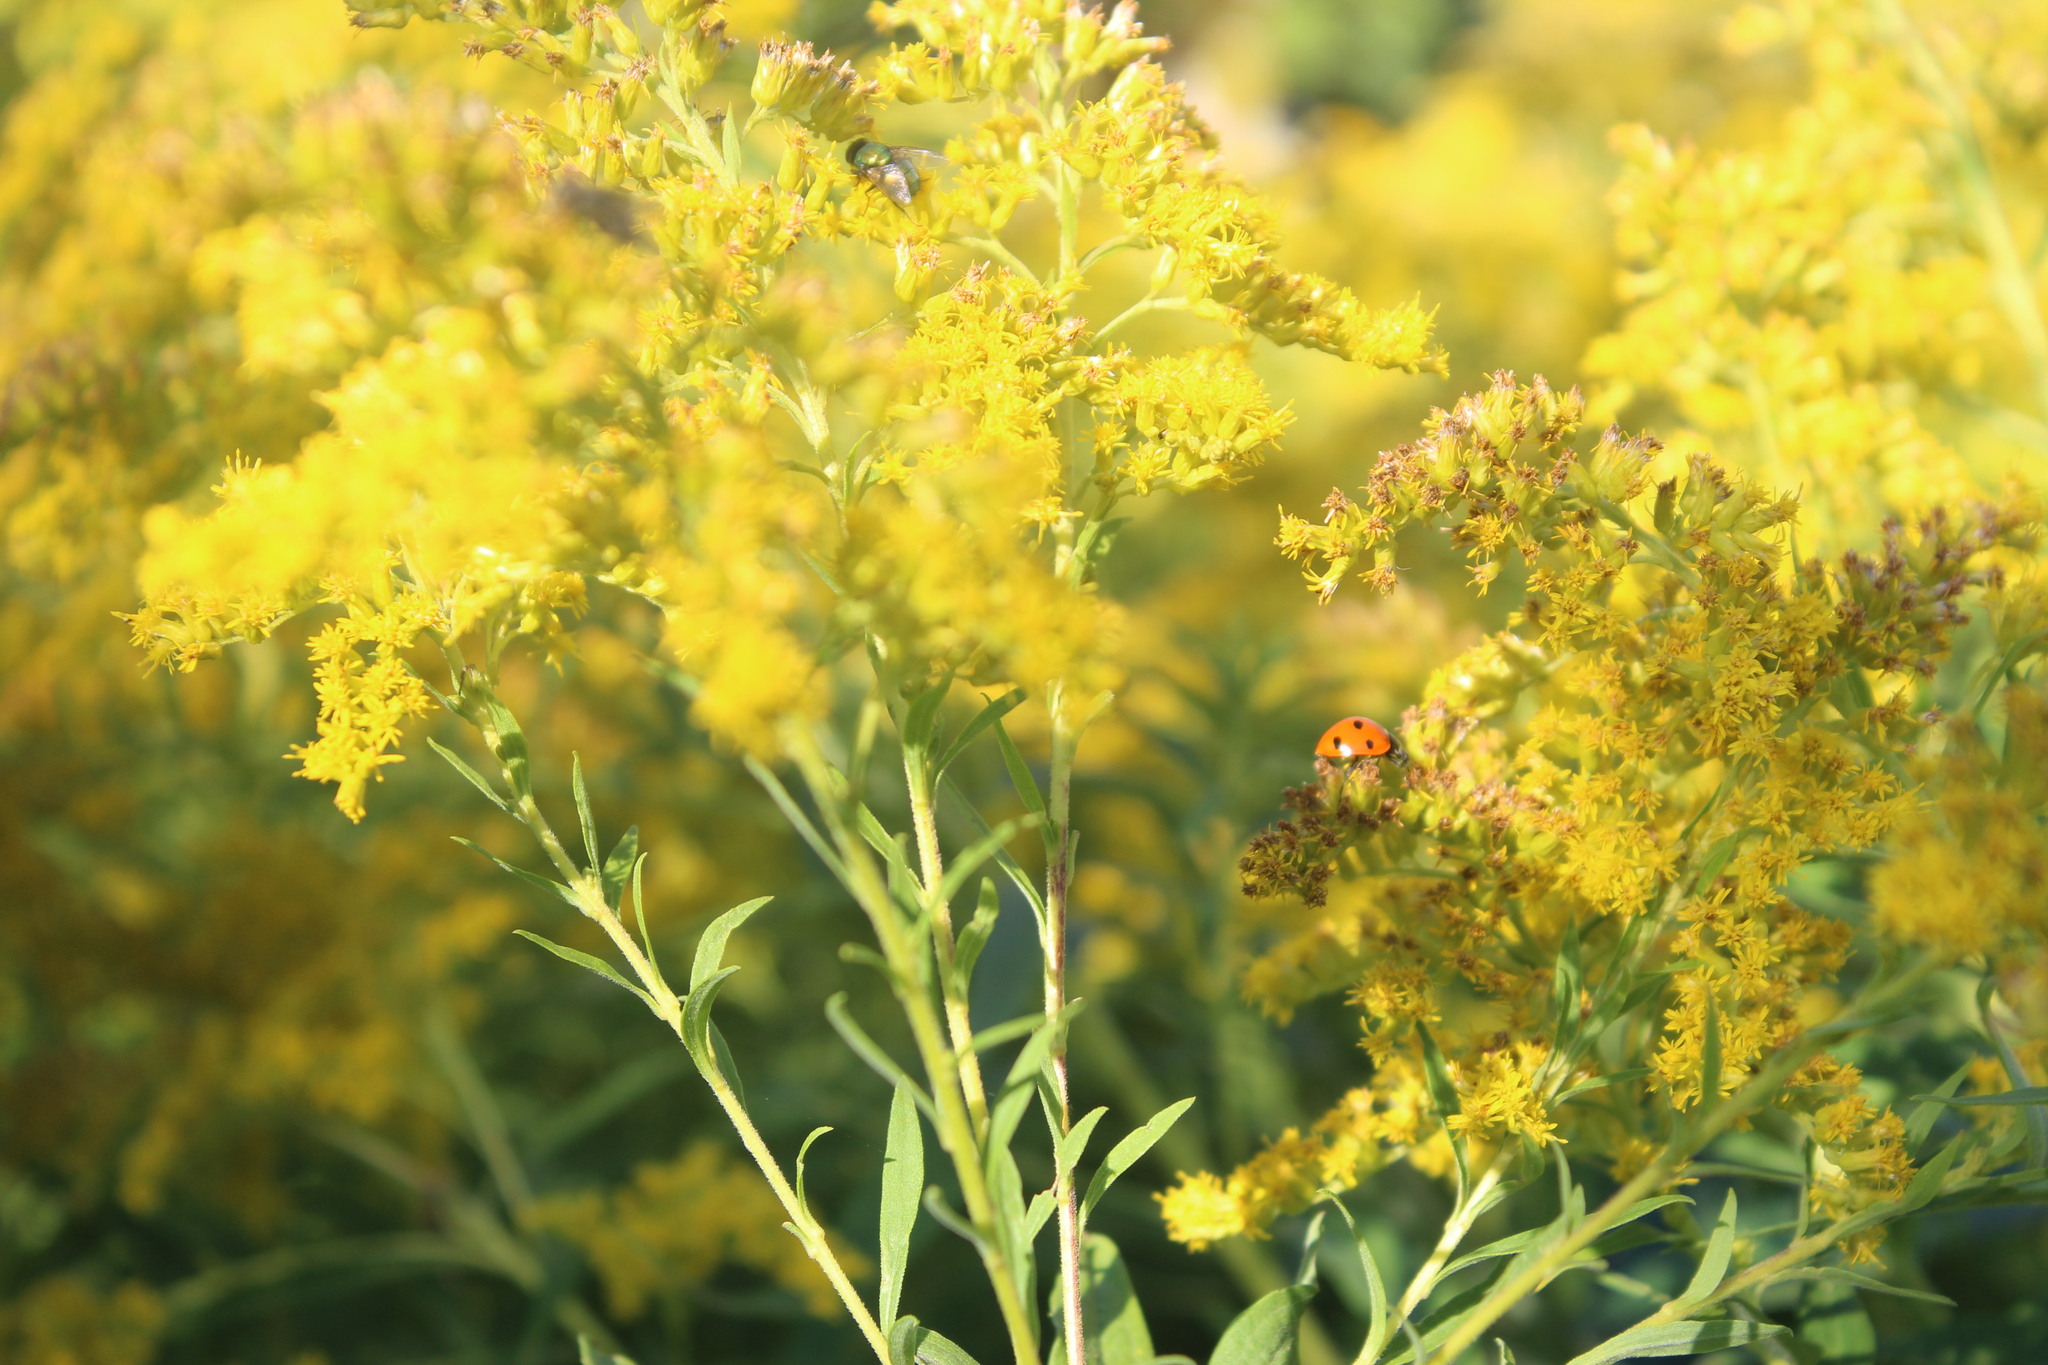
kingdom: Animalia
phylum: Arthropoda
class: Insecta
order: Coleoptera
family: Coccinellidae
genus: Coccinella
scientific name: Coccinella septempunctata
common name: Sevenspotted lady beetle
